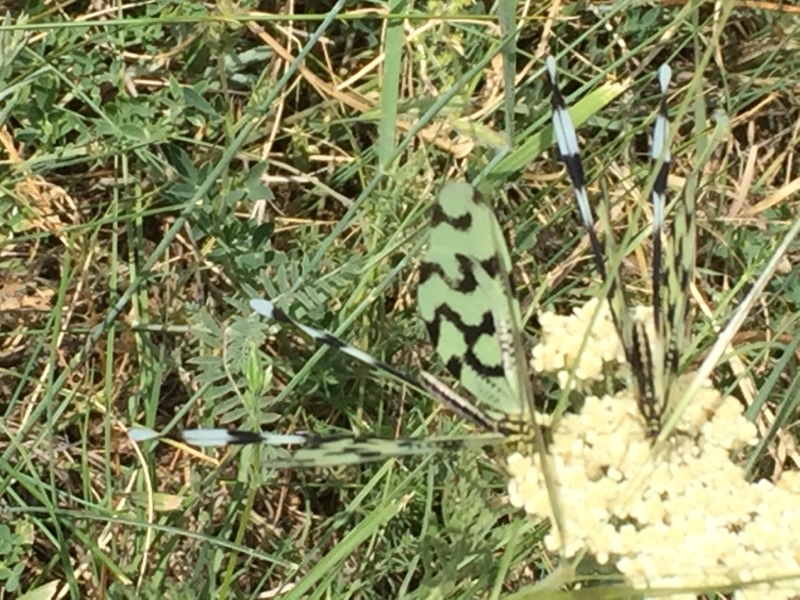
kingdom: Animalia
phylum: Arthropoda
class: Insecta
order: Neuroptera
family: Nemopteridae
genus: Nemoptera
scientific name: Nemoptera sinuata
